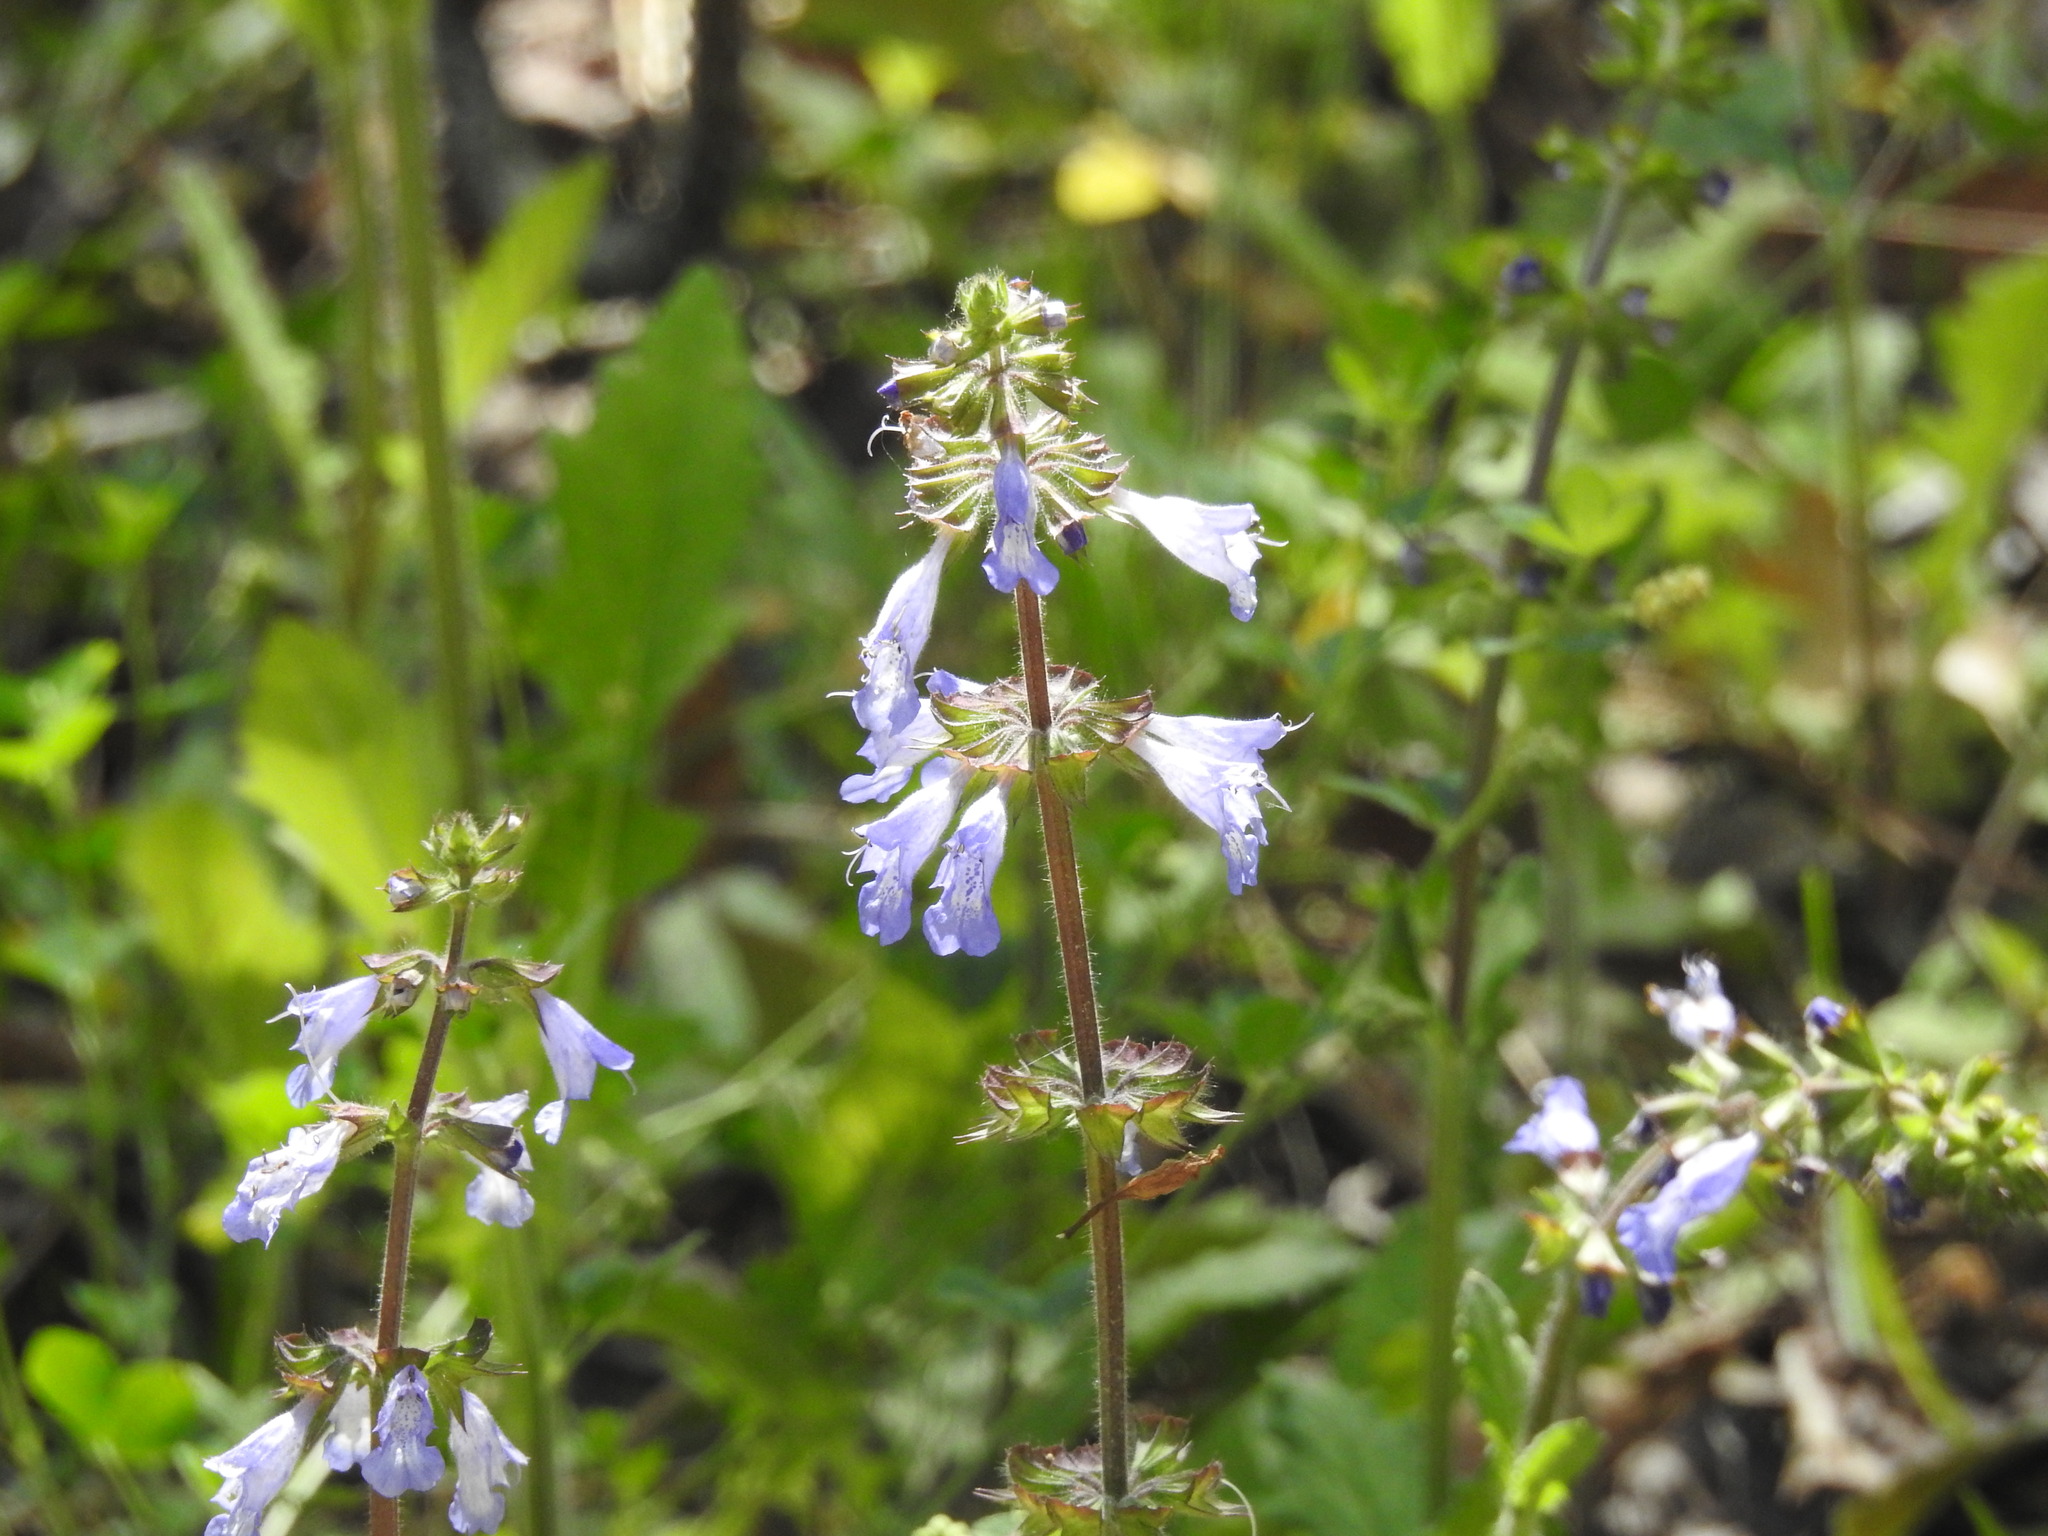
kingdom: Plantae
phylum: Tracheophyta
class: Magnoliopsida
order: Lamiales
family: Lamiaceae
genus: Salvia
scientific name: Salvia lyrata
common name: Cancerweed
